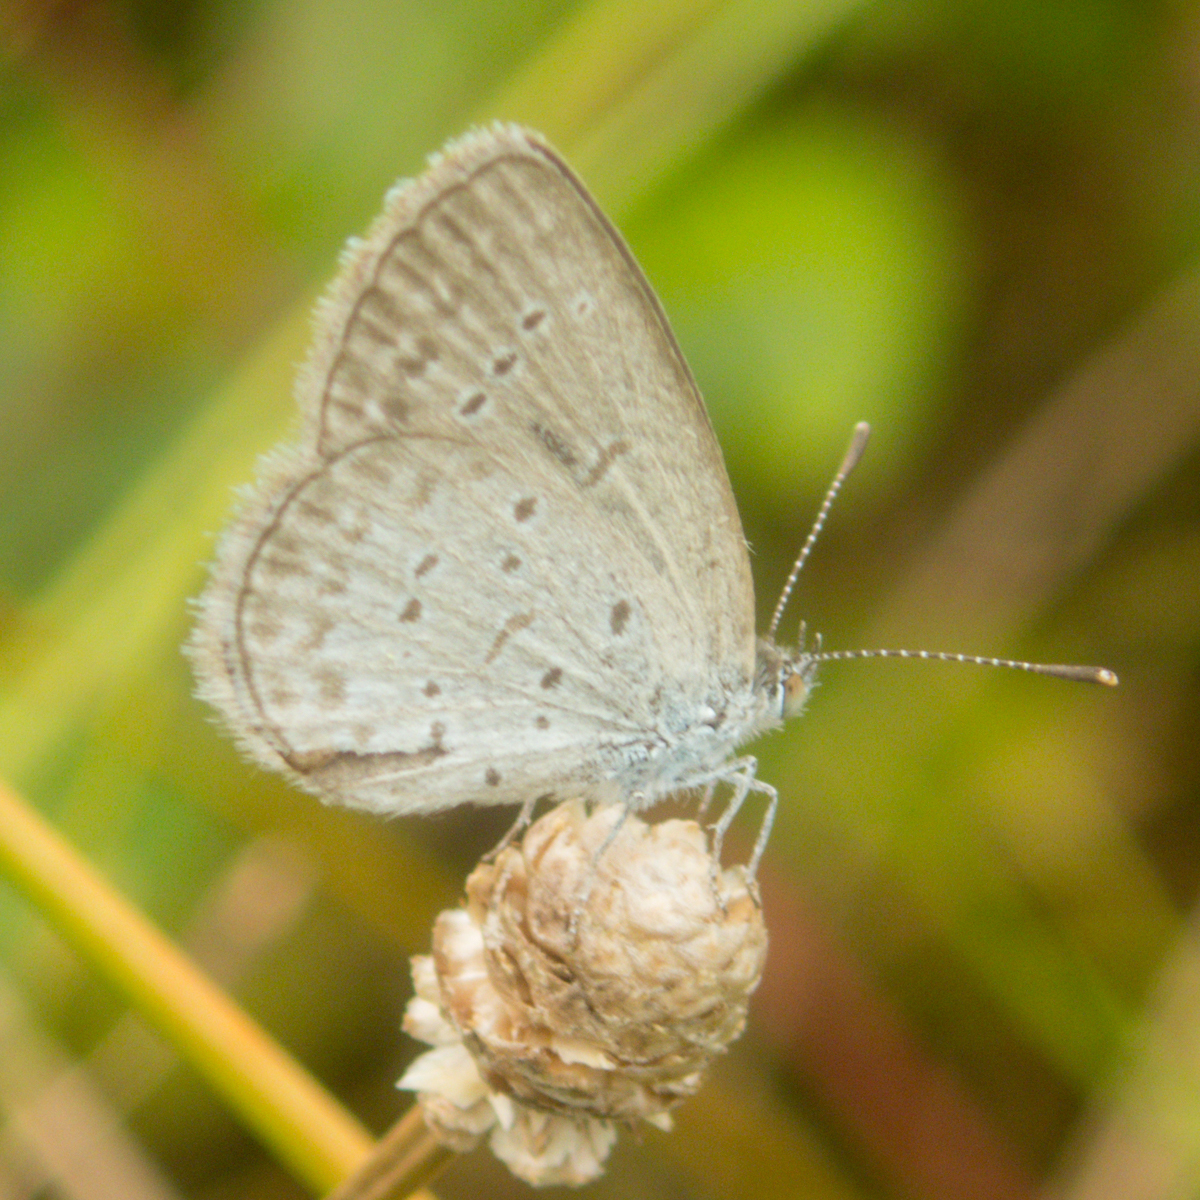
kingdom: Animalia
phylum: Arthropoda
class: Insecta
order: Lepidoptera
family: Lycaenidae
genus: Zizina
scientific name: Zizina otis
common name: Lesser grass blue
